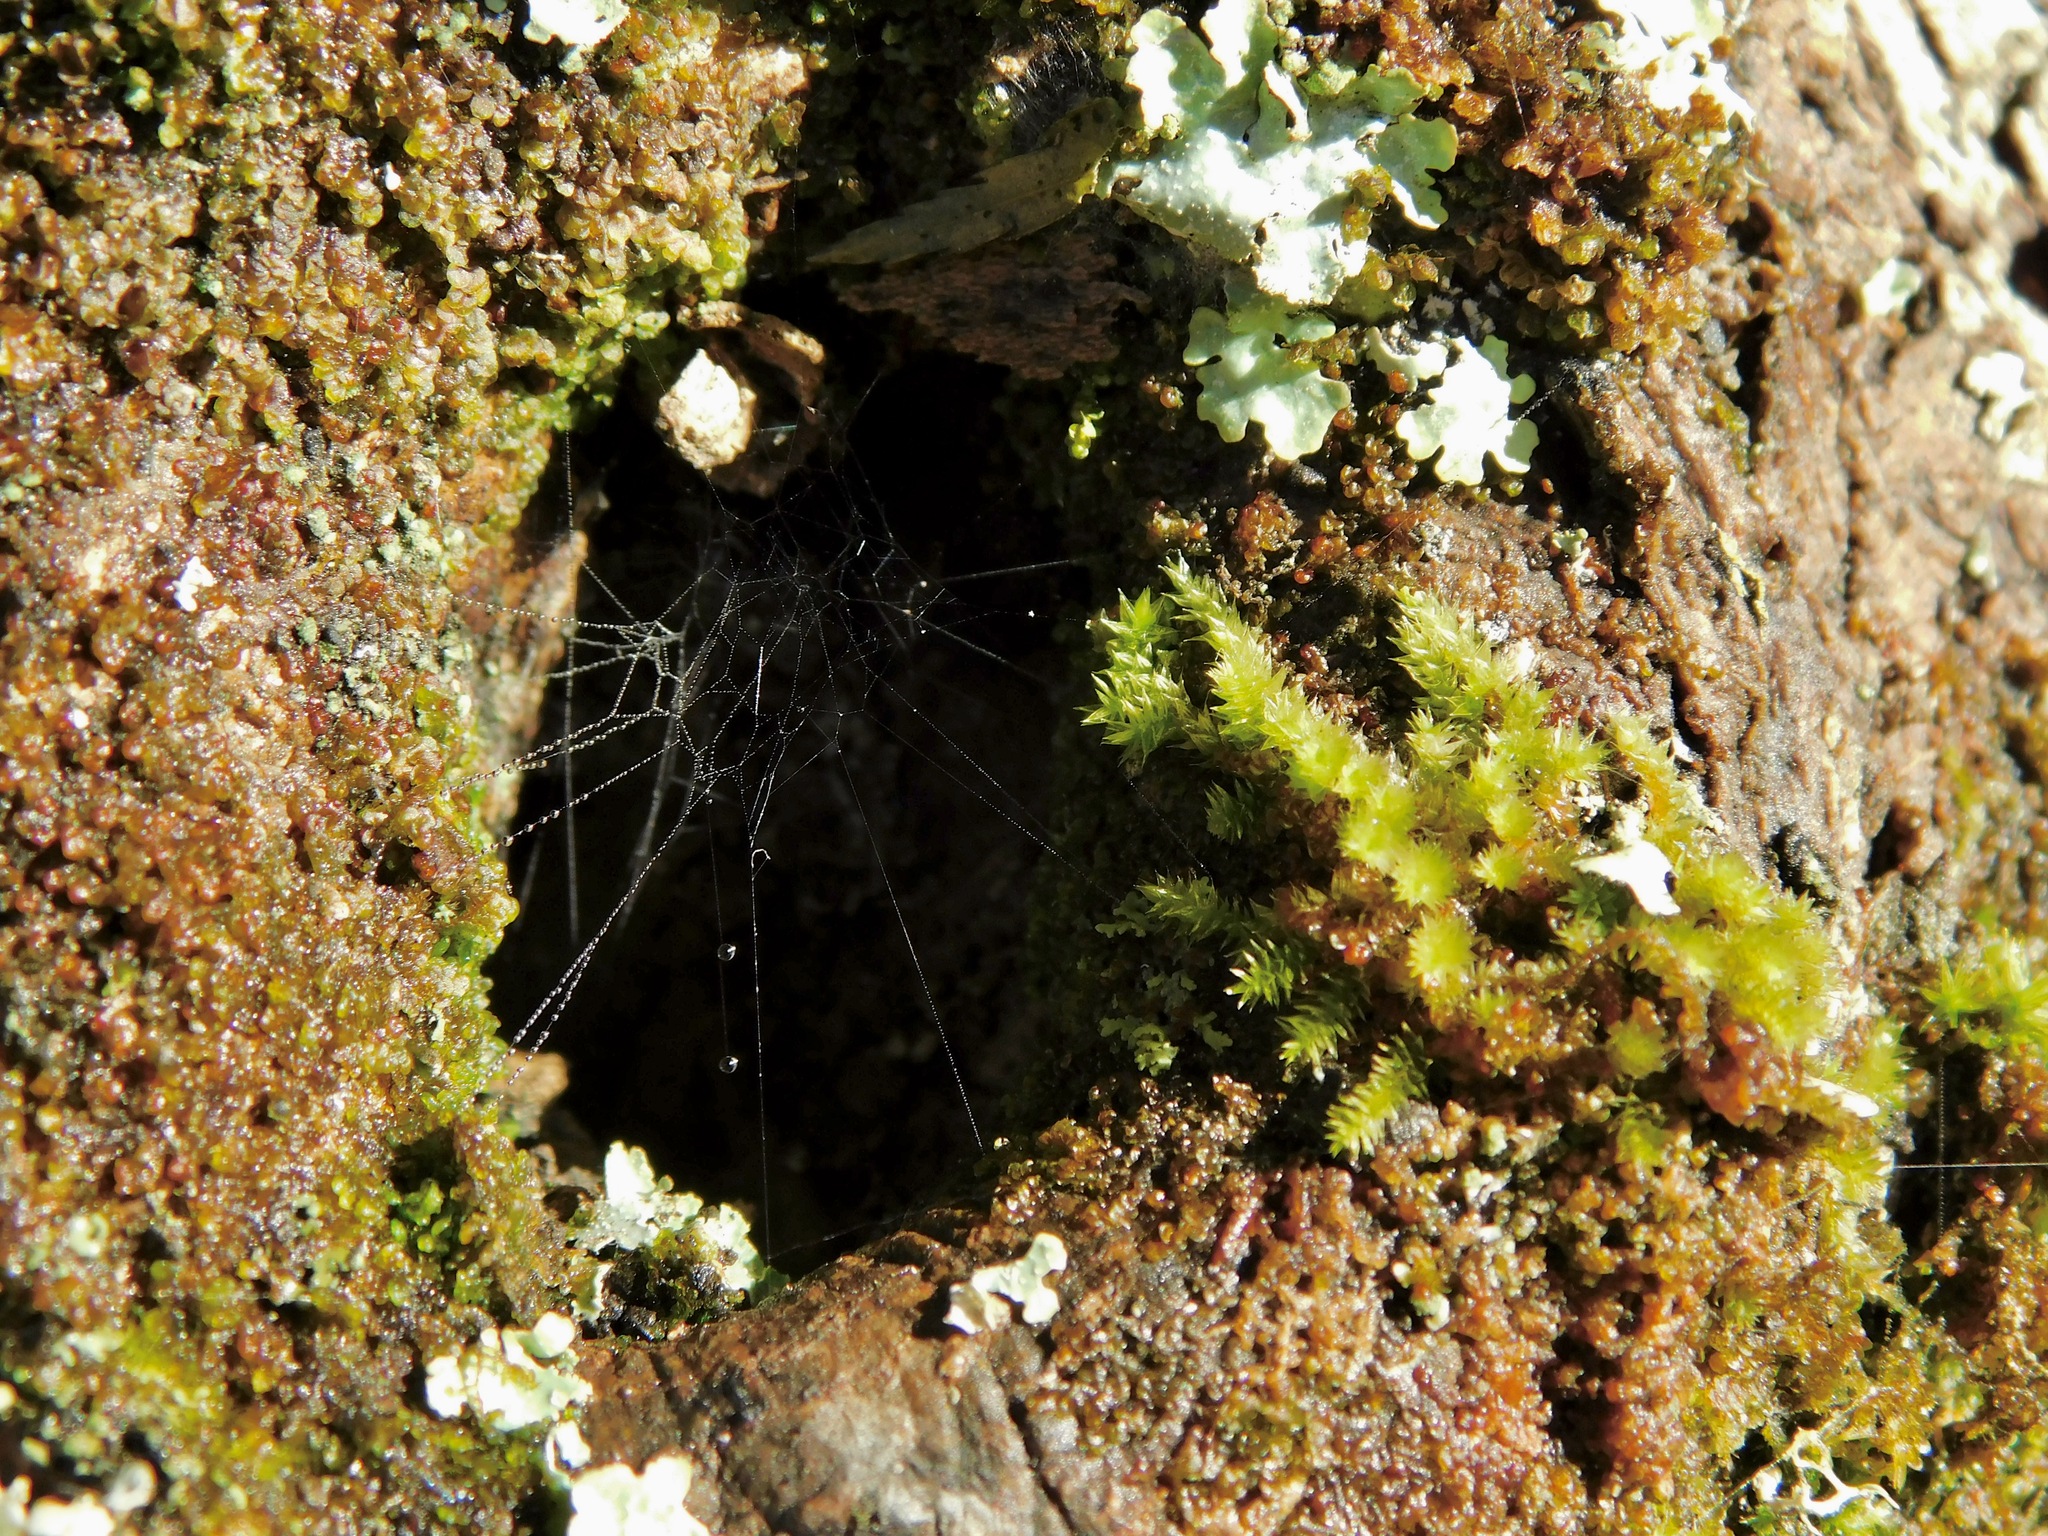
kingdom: Plantae
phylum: Bryophyta
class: Bryopsida
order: Hypnales
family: Leucodontaceae
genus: Leucodon
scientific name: Leucodon julaceus
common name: Smooth hook moss
